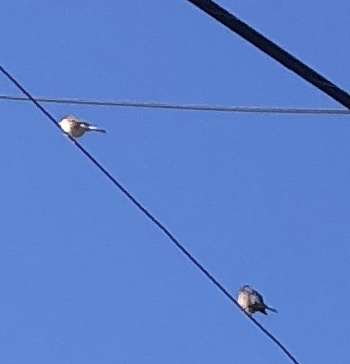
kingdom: Animalia
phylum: Chordata
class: Aves
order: Passeriformes
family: Turdidae
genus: Sialia
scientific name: Sialia mexicana
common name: Western bluebird
